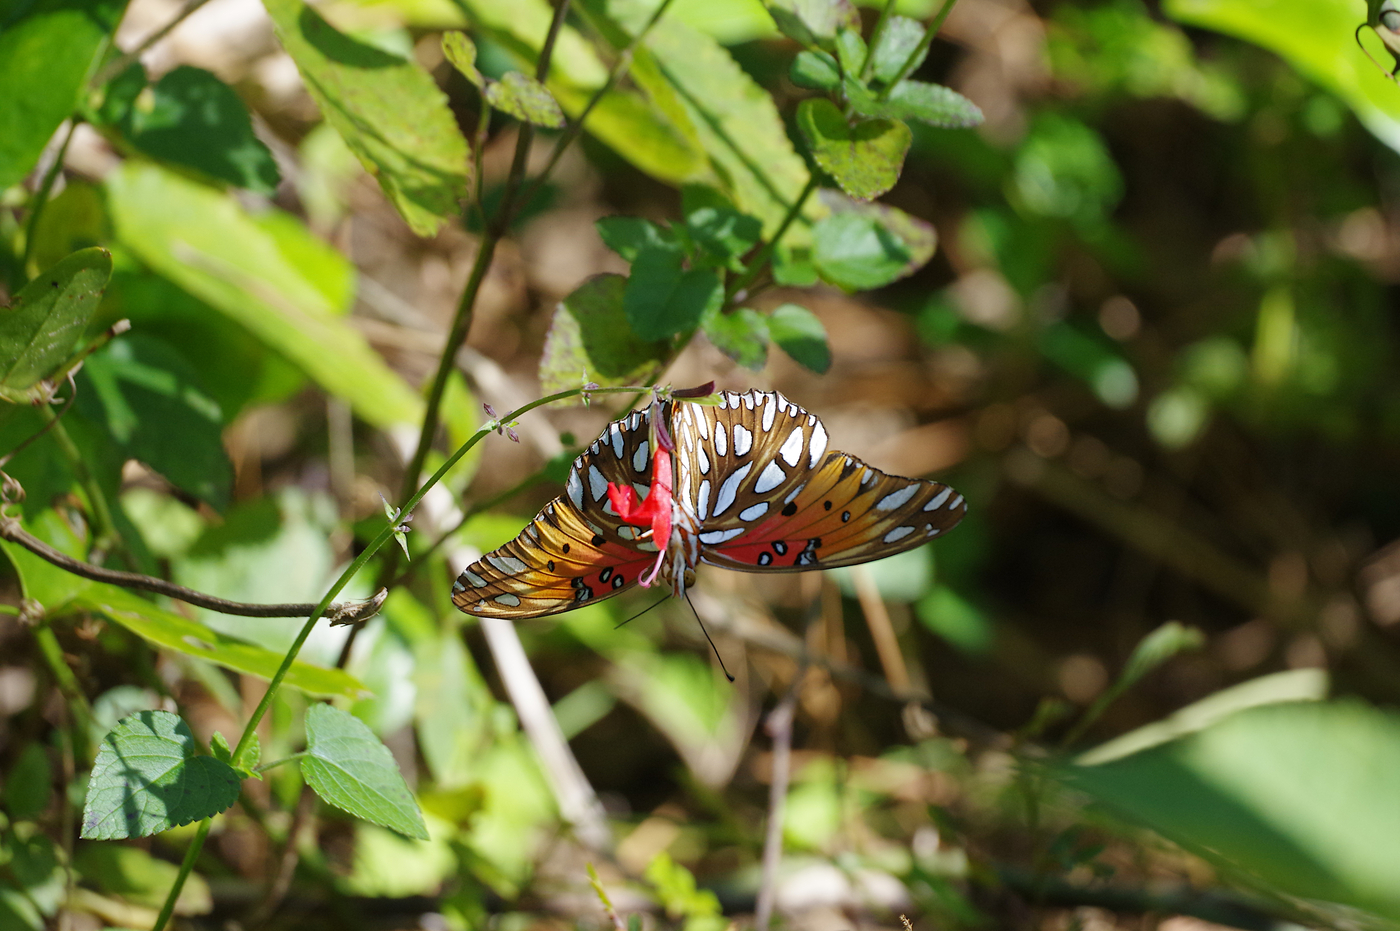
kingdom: Animalia
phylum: Arthropoda
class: Insecta
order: Lepidoptera
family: Nymphalidae
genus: Dione
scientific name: Dione vanillae
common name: Gulf fritillary
